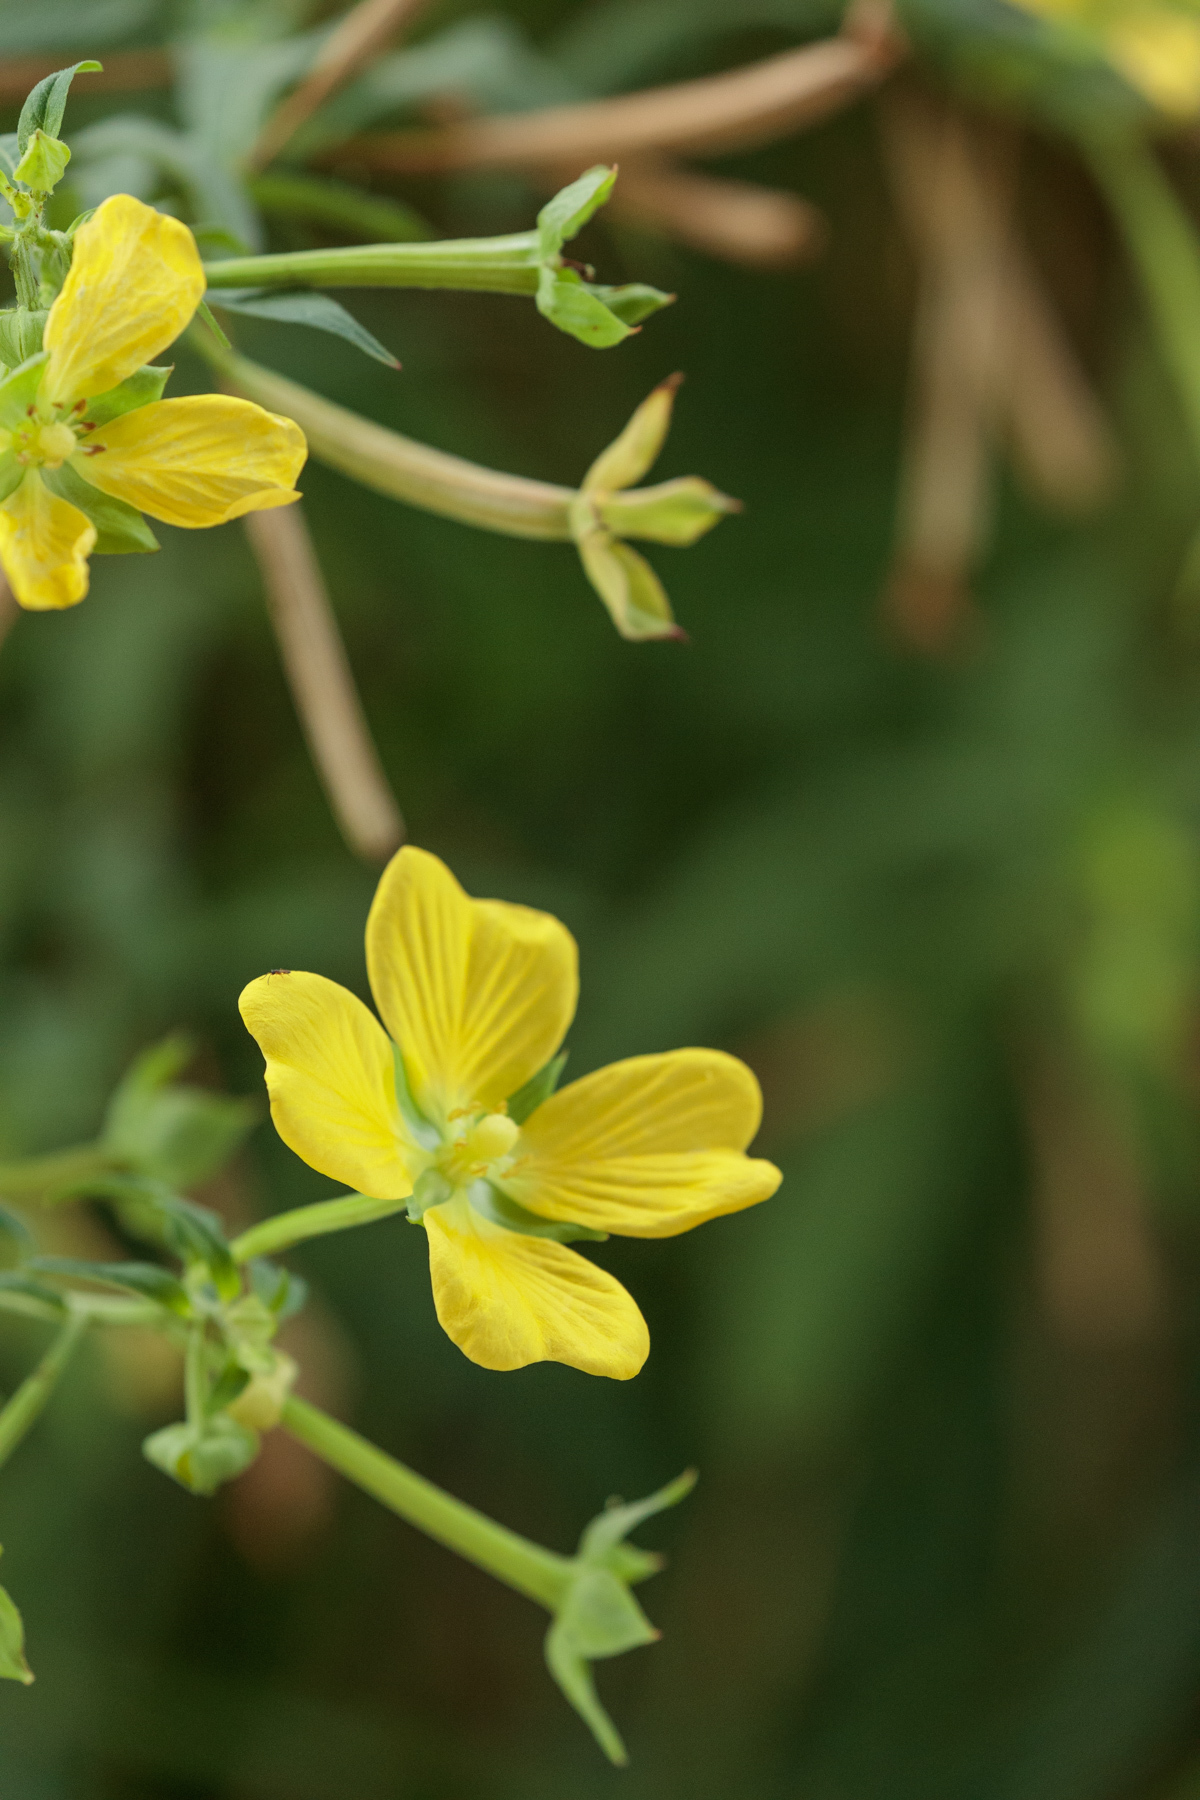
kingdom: Plantae
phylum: Tracheophyta
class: Magnoliopsida
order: Myrtales
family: Onagraceae
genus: Ludwigia
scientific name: Ludwigia octovalvis
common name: Water-primrose
